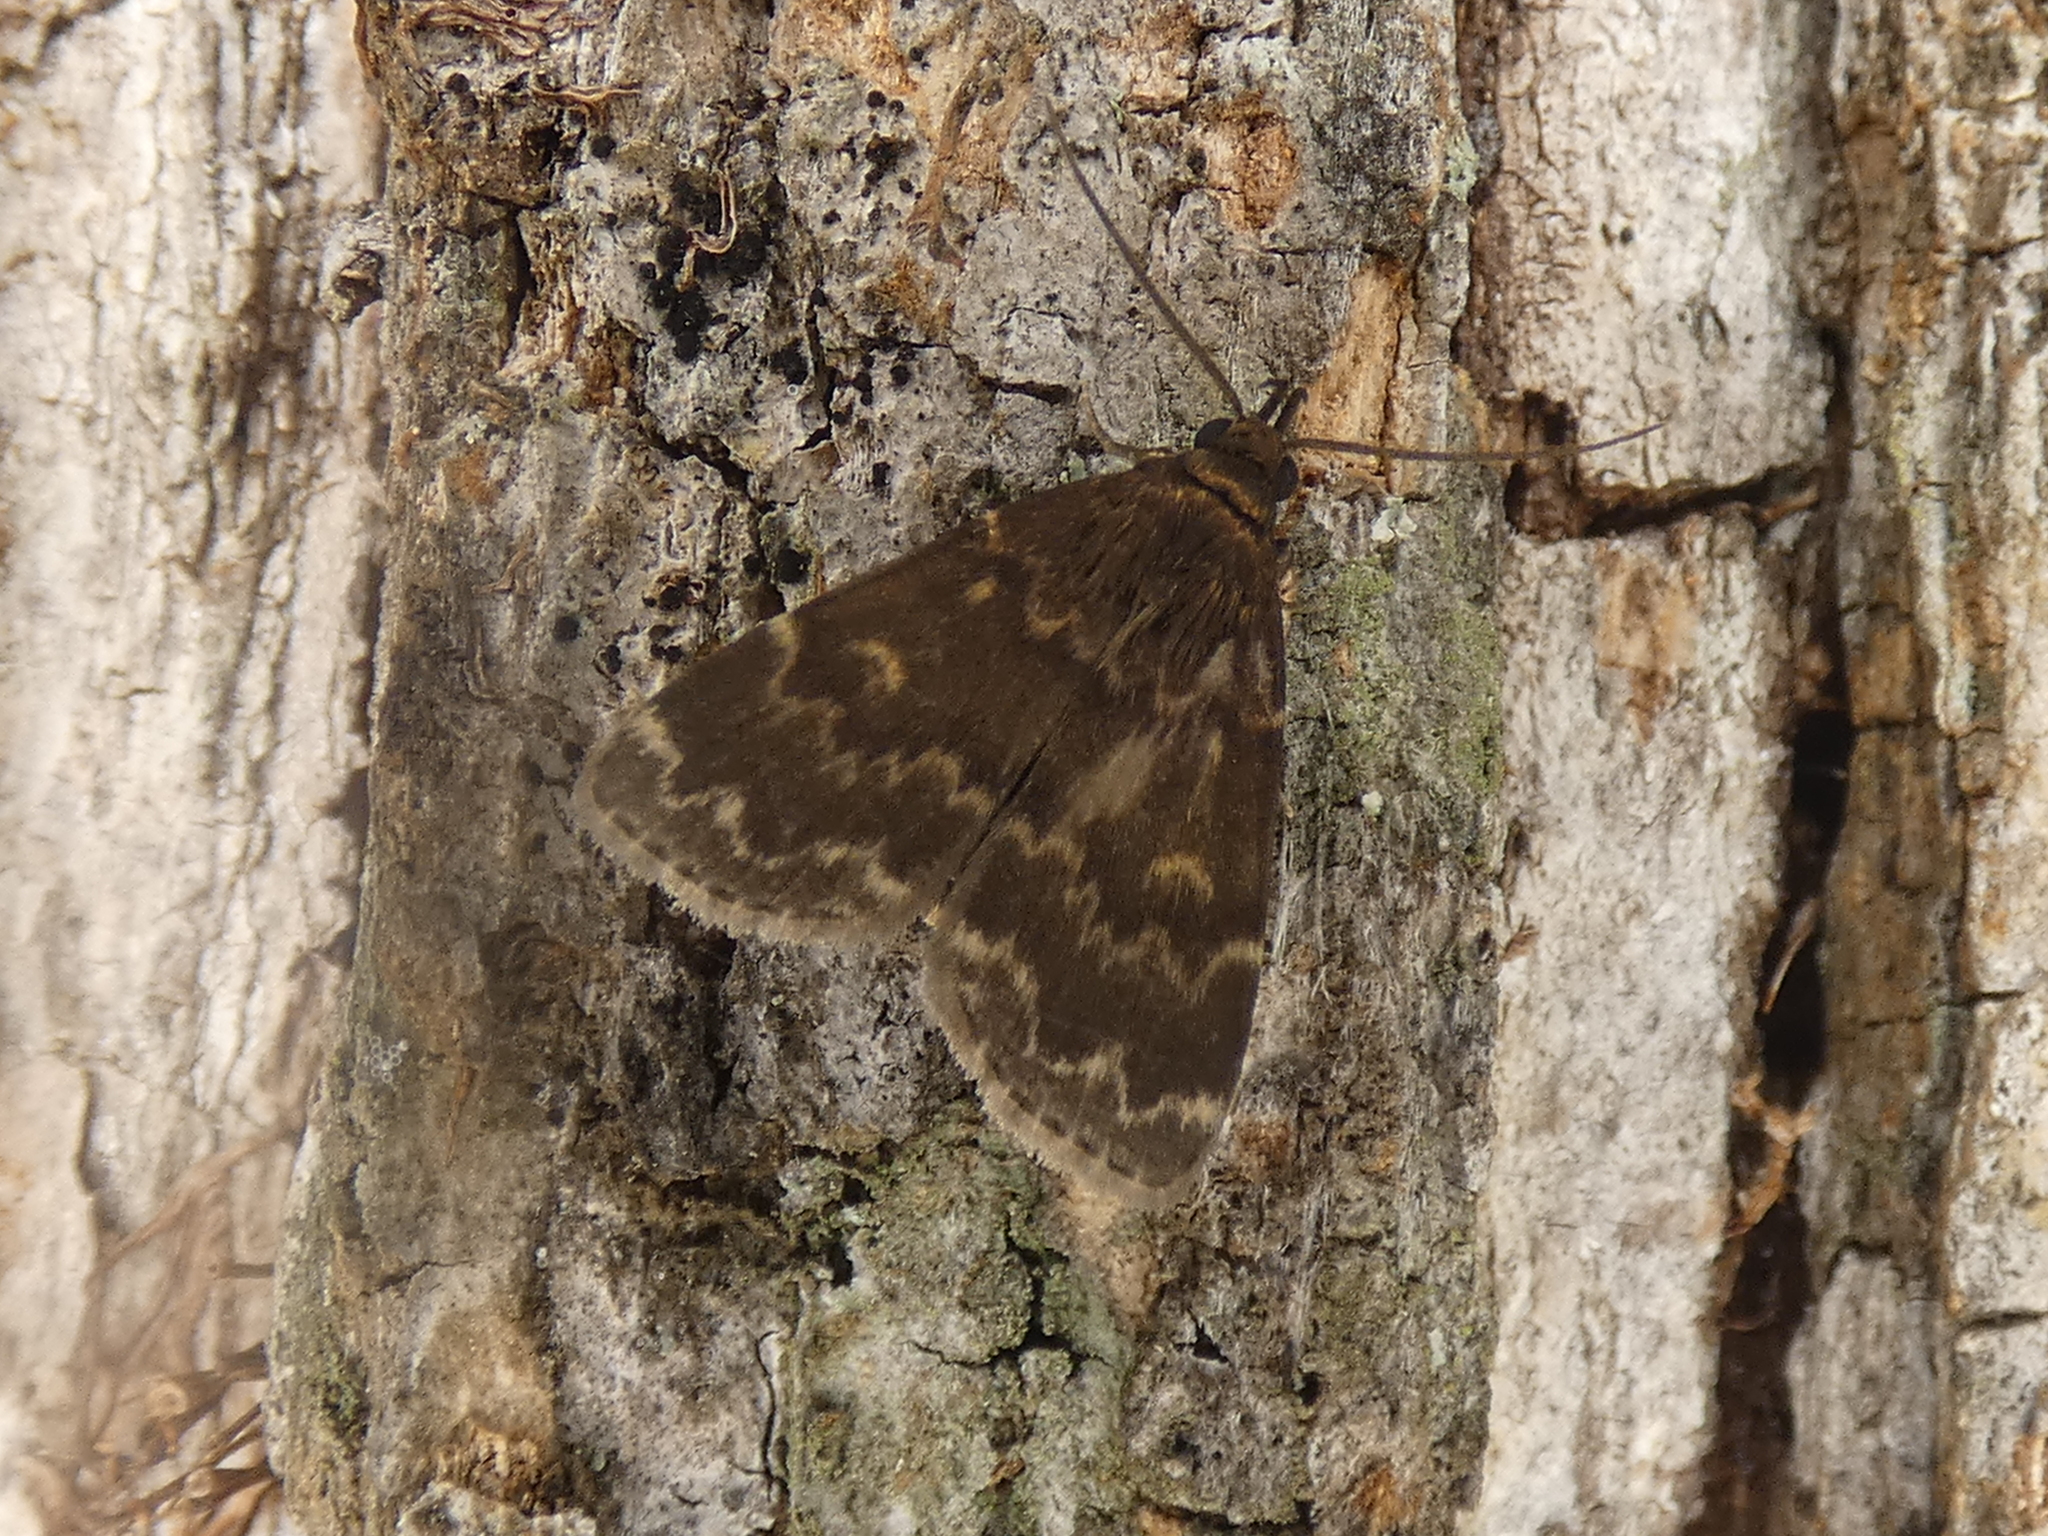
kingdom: Animalia
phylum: Arthropoda
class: Insecta
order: Lepidoptera
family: Erebidae
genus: Idia
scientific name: Idia lubricalis
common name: Twin-striped tabby
